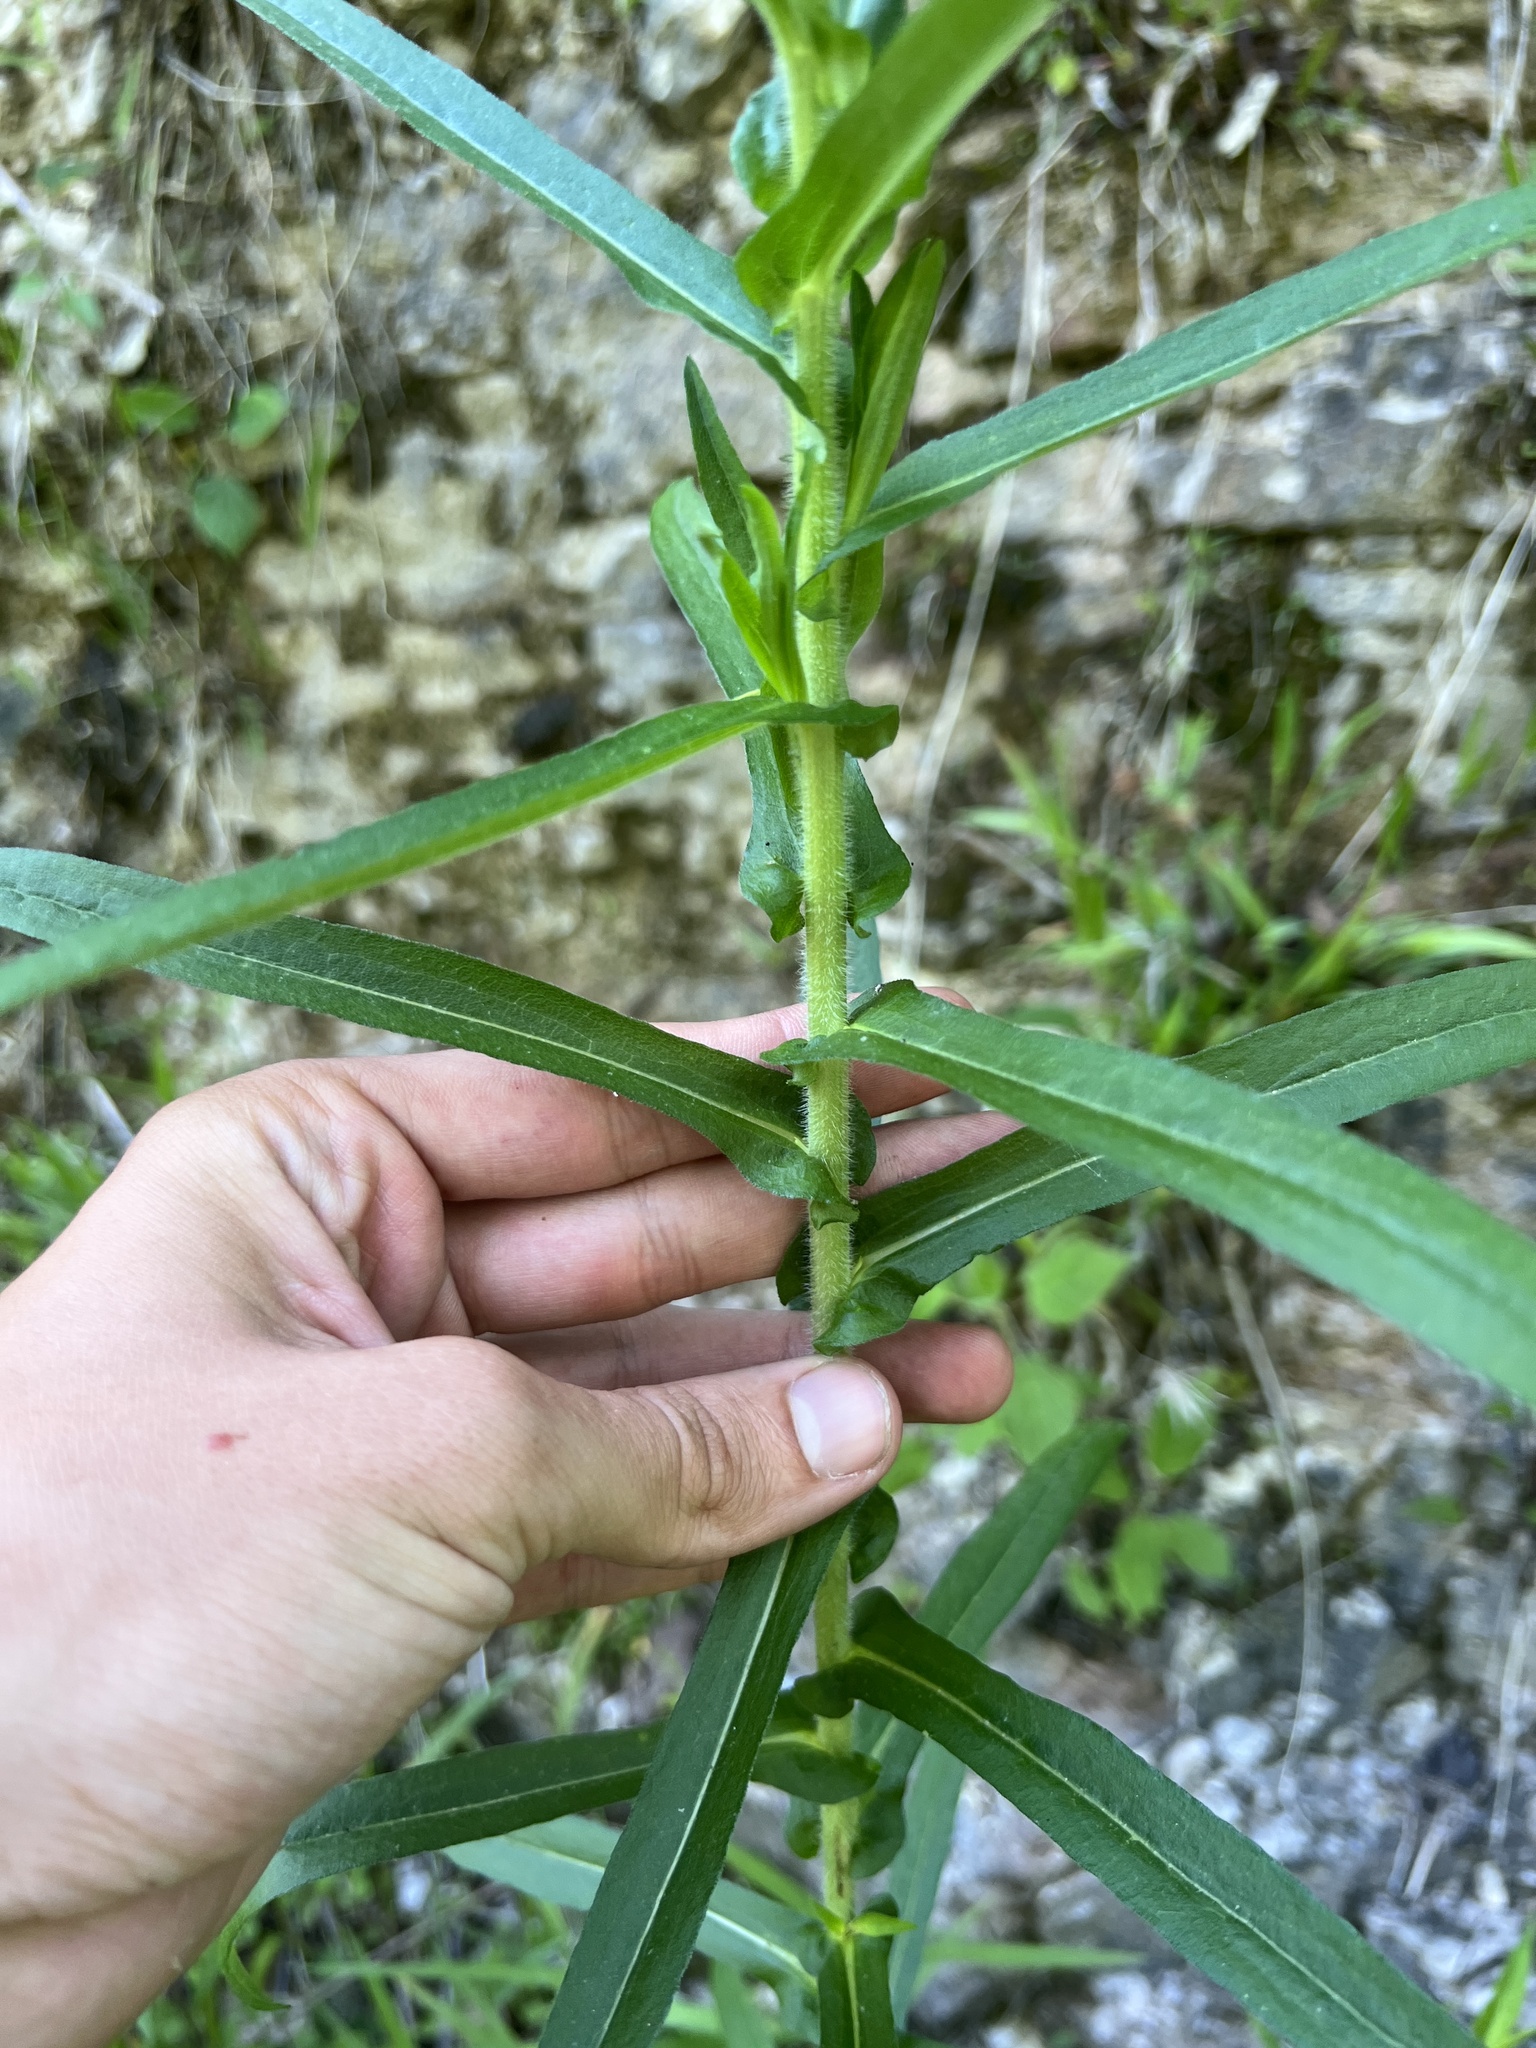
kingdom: Plantae
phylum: Tracheophyta
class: Magnoliopsida
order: Asterales
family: Asteraceae
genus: Symphyotrichum
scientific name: Symphyotrichum puniceum
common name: Bog aster
